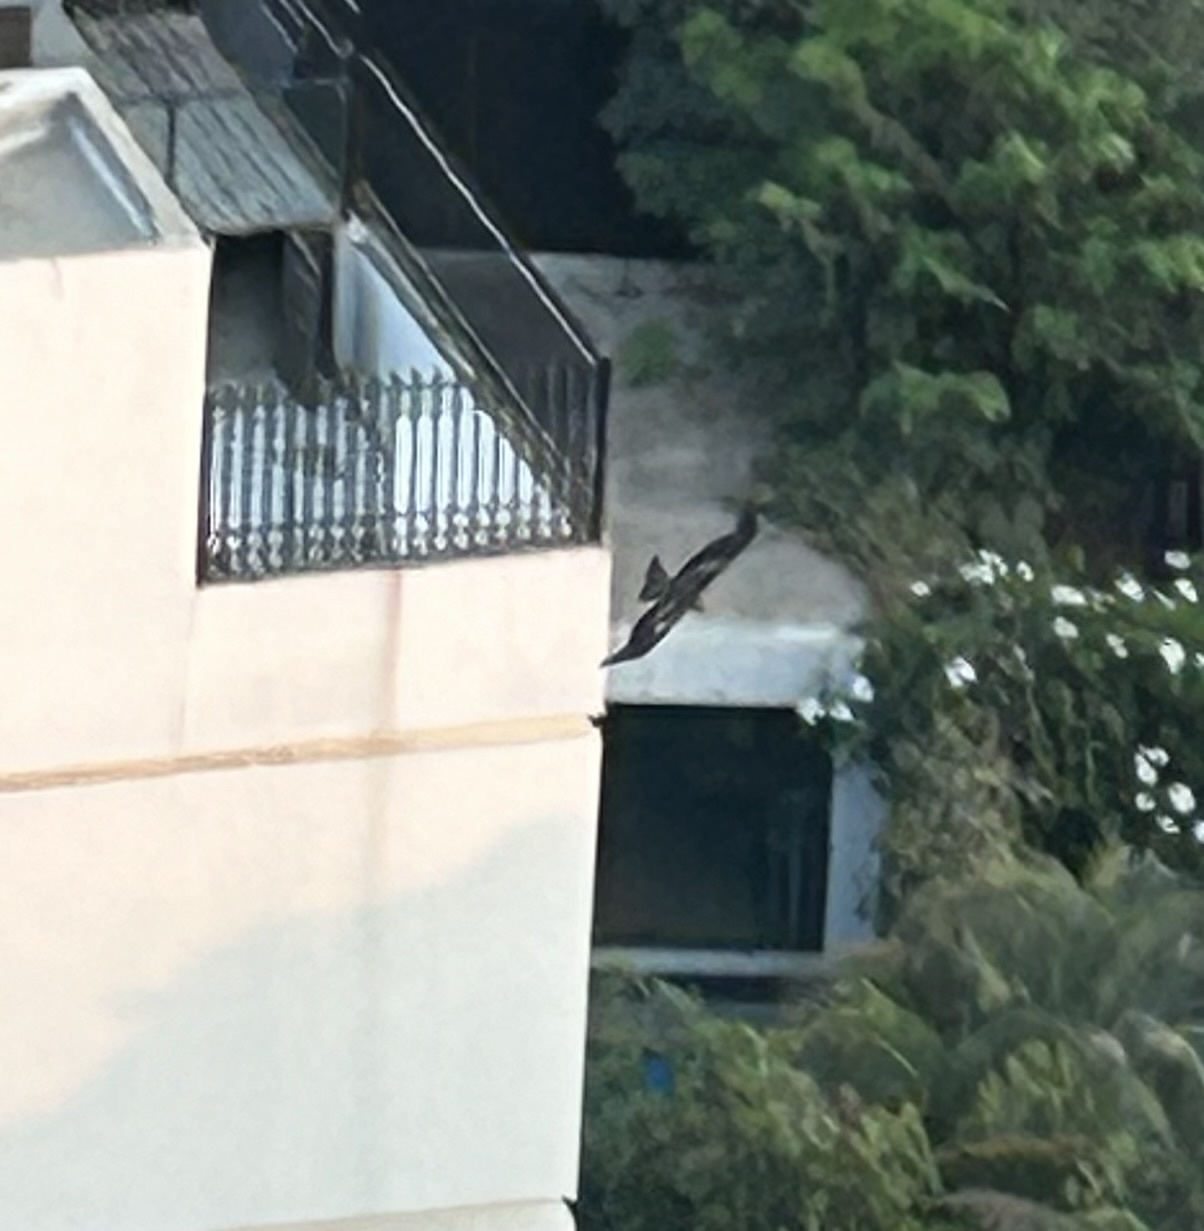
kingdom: Animalia
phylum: Chordata
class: Aves
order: Accipitriformes
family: Accipitridae
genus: Milvus
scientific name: Milvus migrans
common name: Black kite
